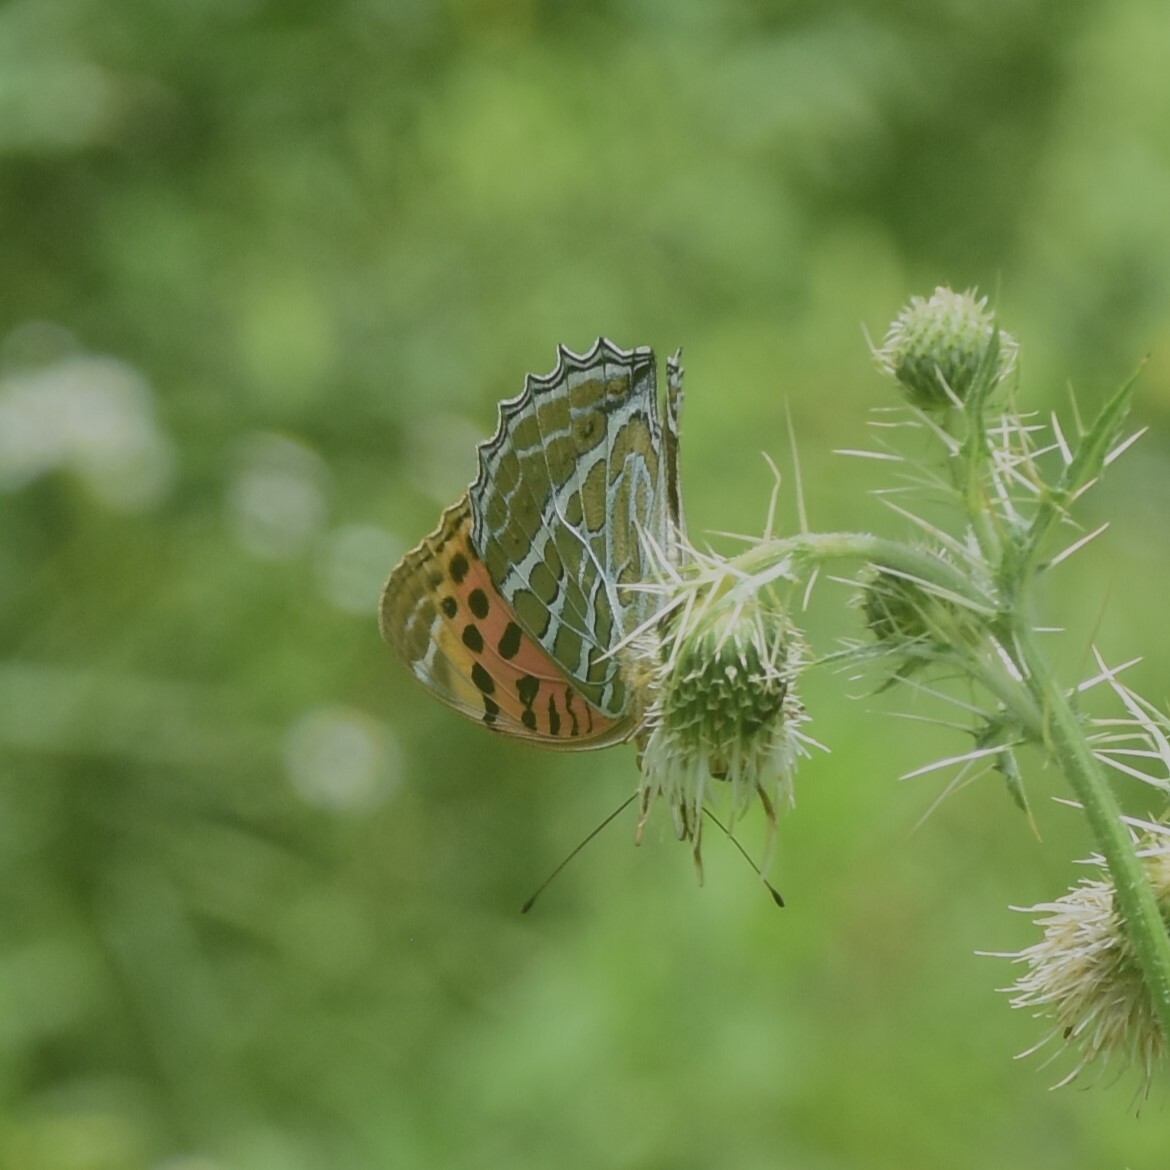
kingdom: Animalia
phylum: Arthropoda
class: Insecta
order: Lepidoptera
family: Nymphalidae
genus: Childrena
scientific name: Childrena childreni
